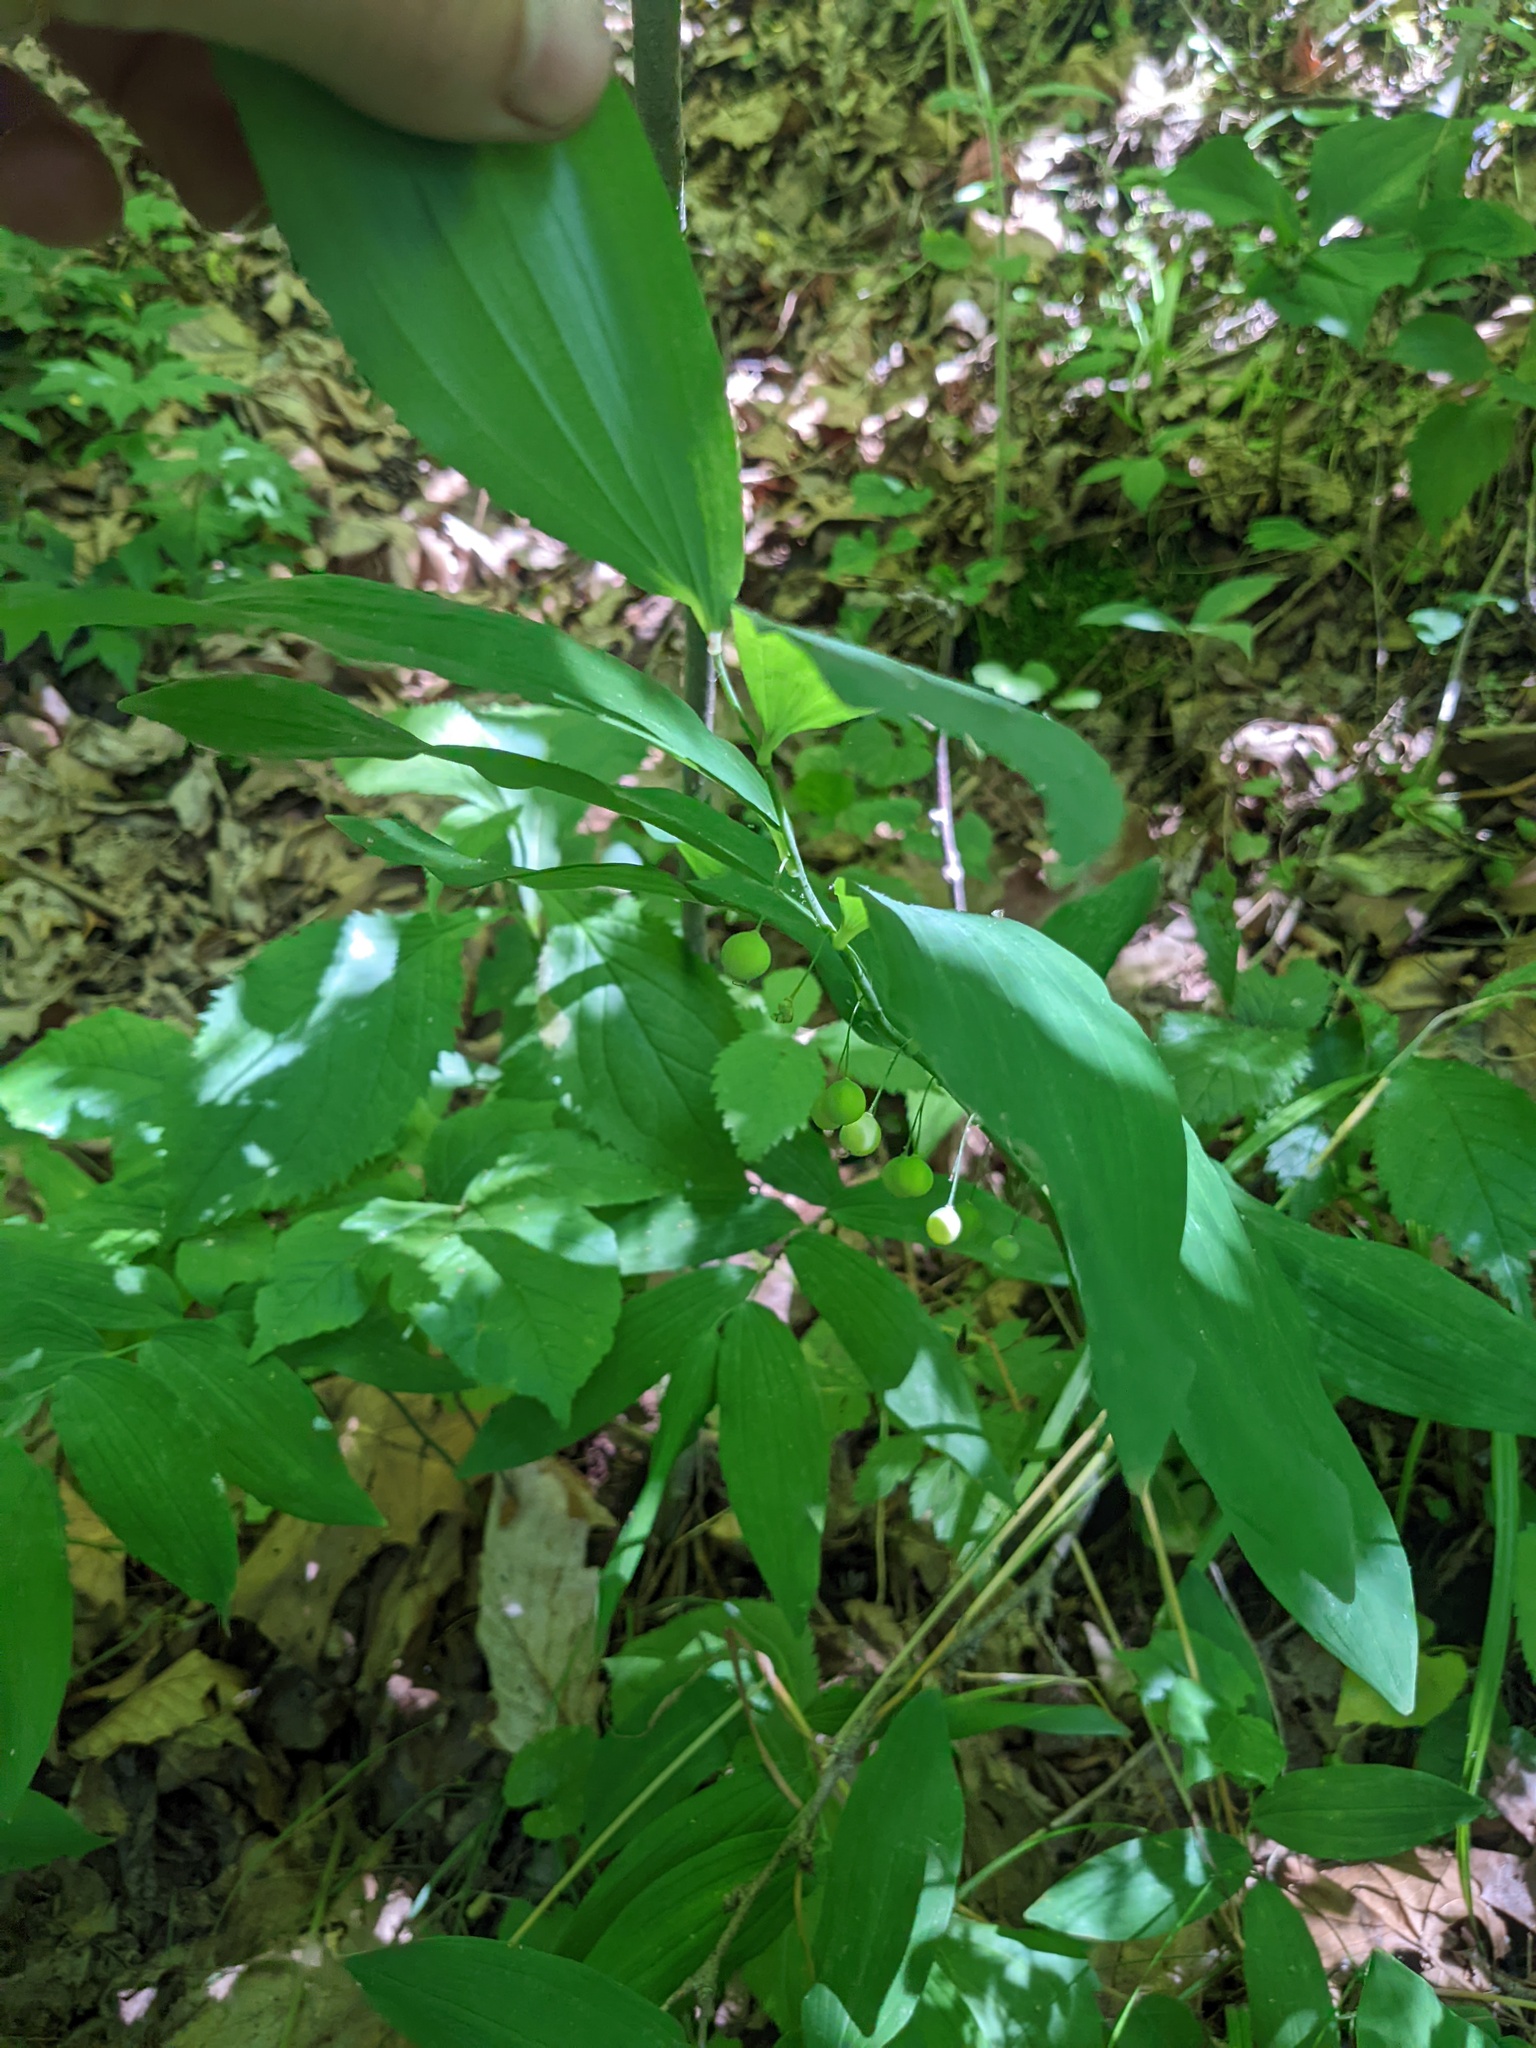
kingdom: Plantae
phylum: Tracheophyta
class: Liliopsida
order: Asparagales
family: Asparagaceae
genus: Polygonatum
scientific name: Polygonatum pubescens
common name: Downy solomon's seal
